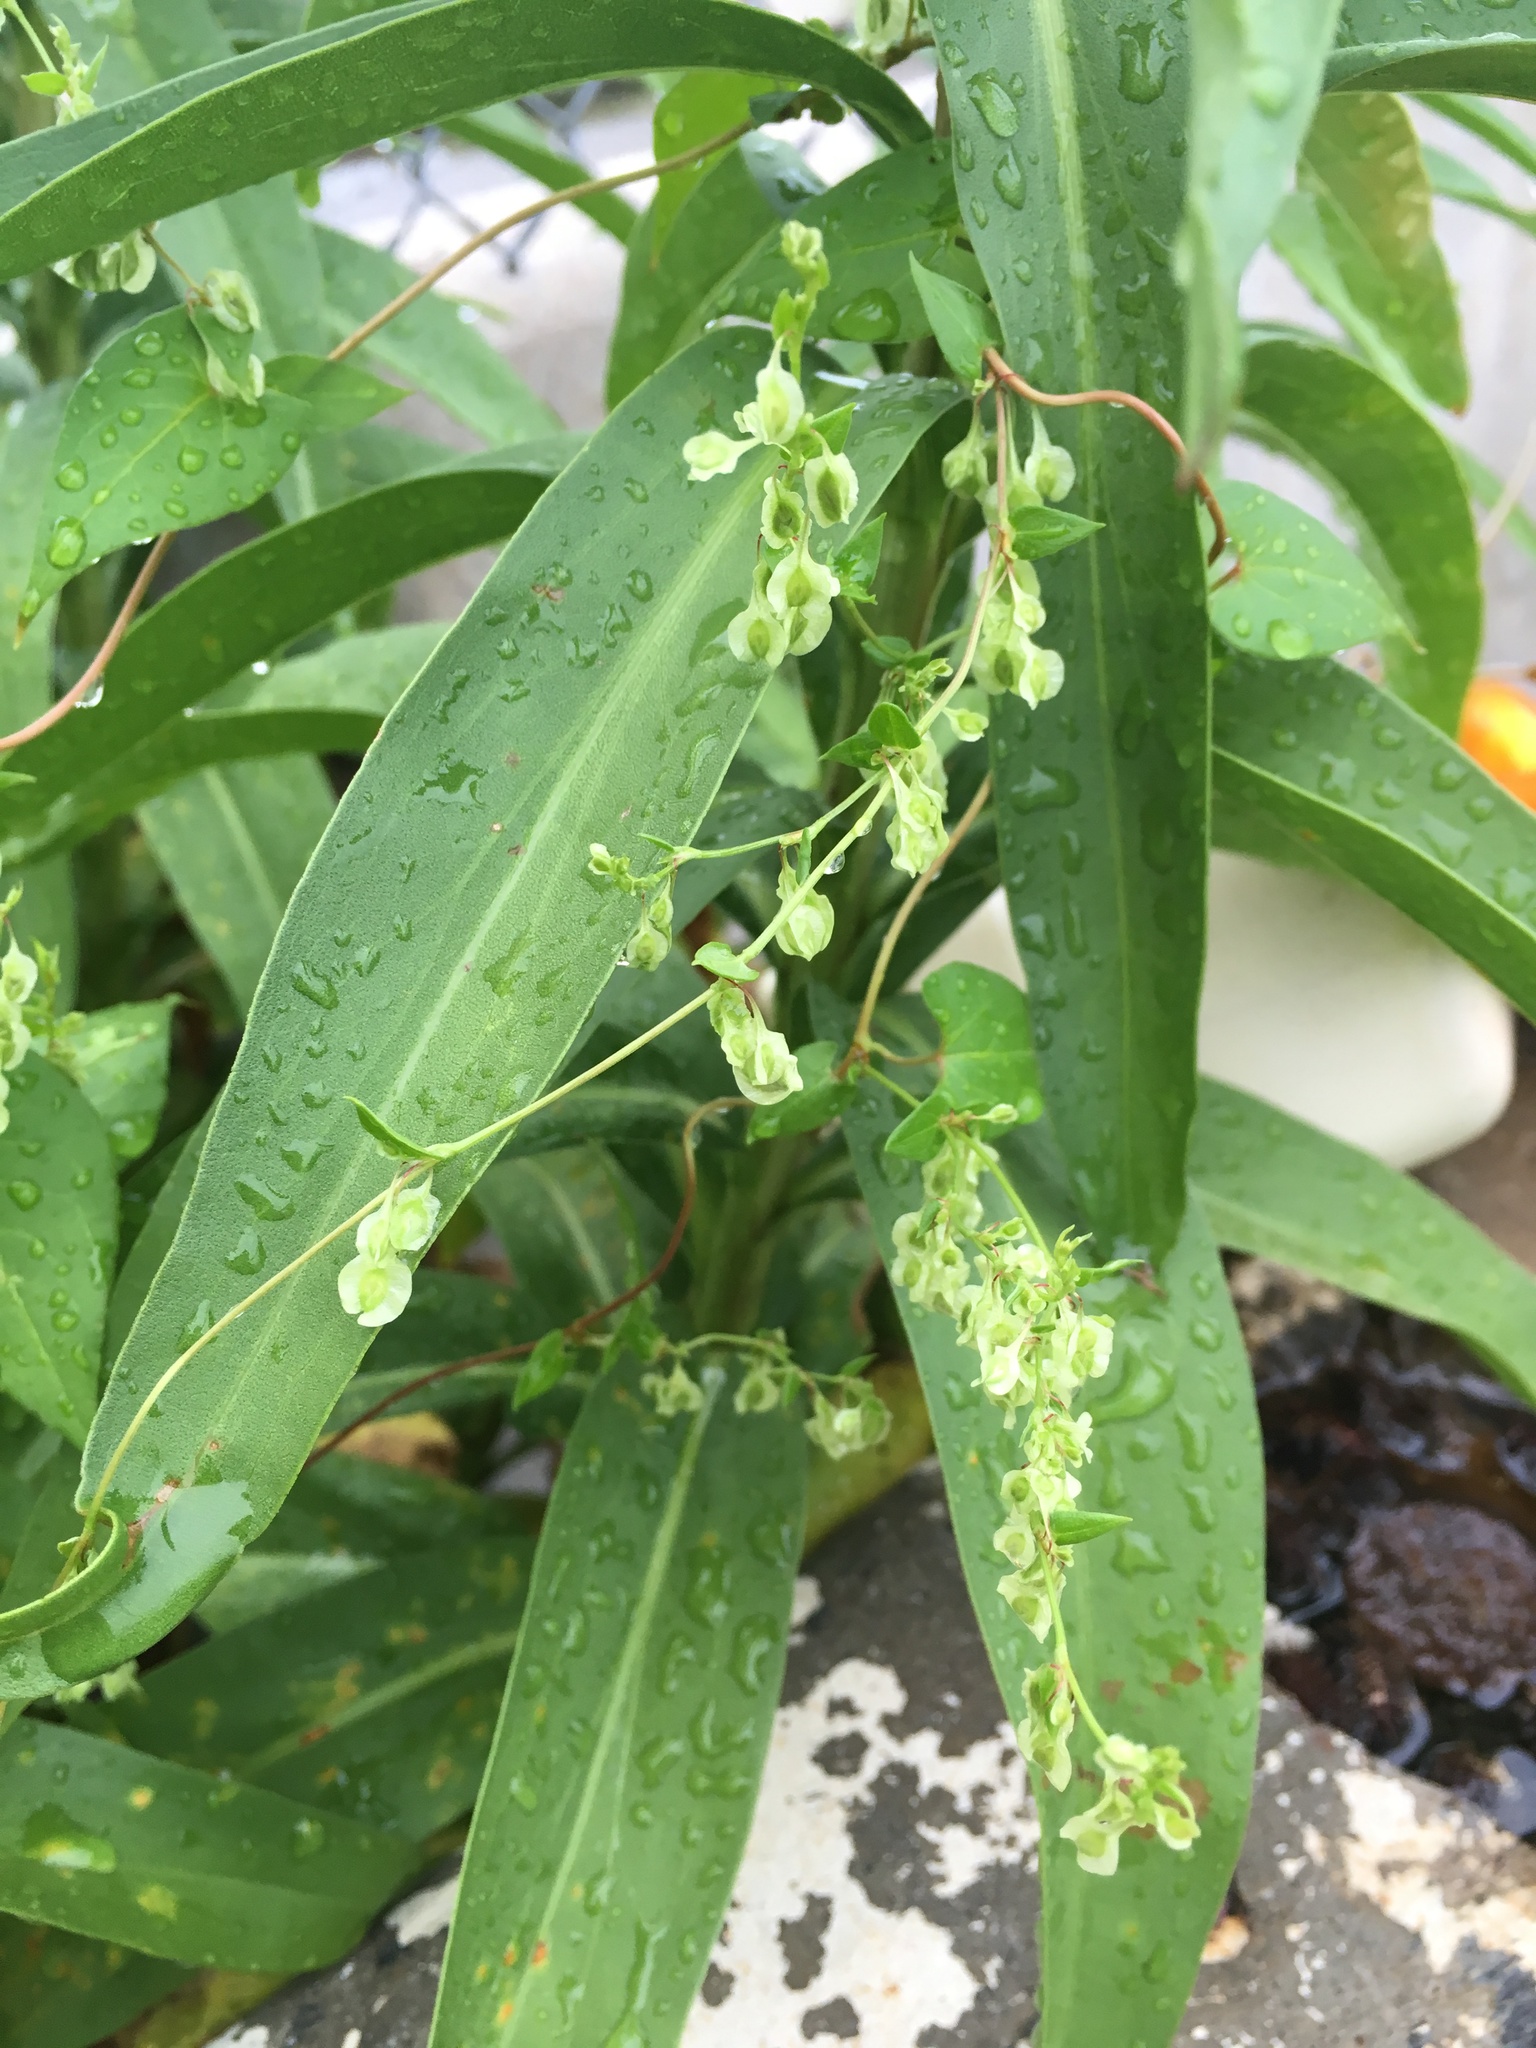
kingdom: Plantae
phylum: Tracheophyta
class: Magnoliopsida
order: Caryophyllales
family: Polygonaceae
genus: Fallopia
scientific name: Fallopia scandens
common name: Climbing false buckwheat
